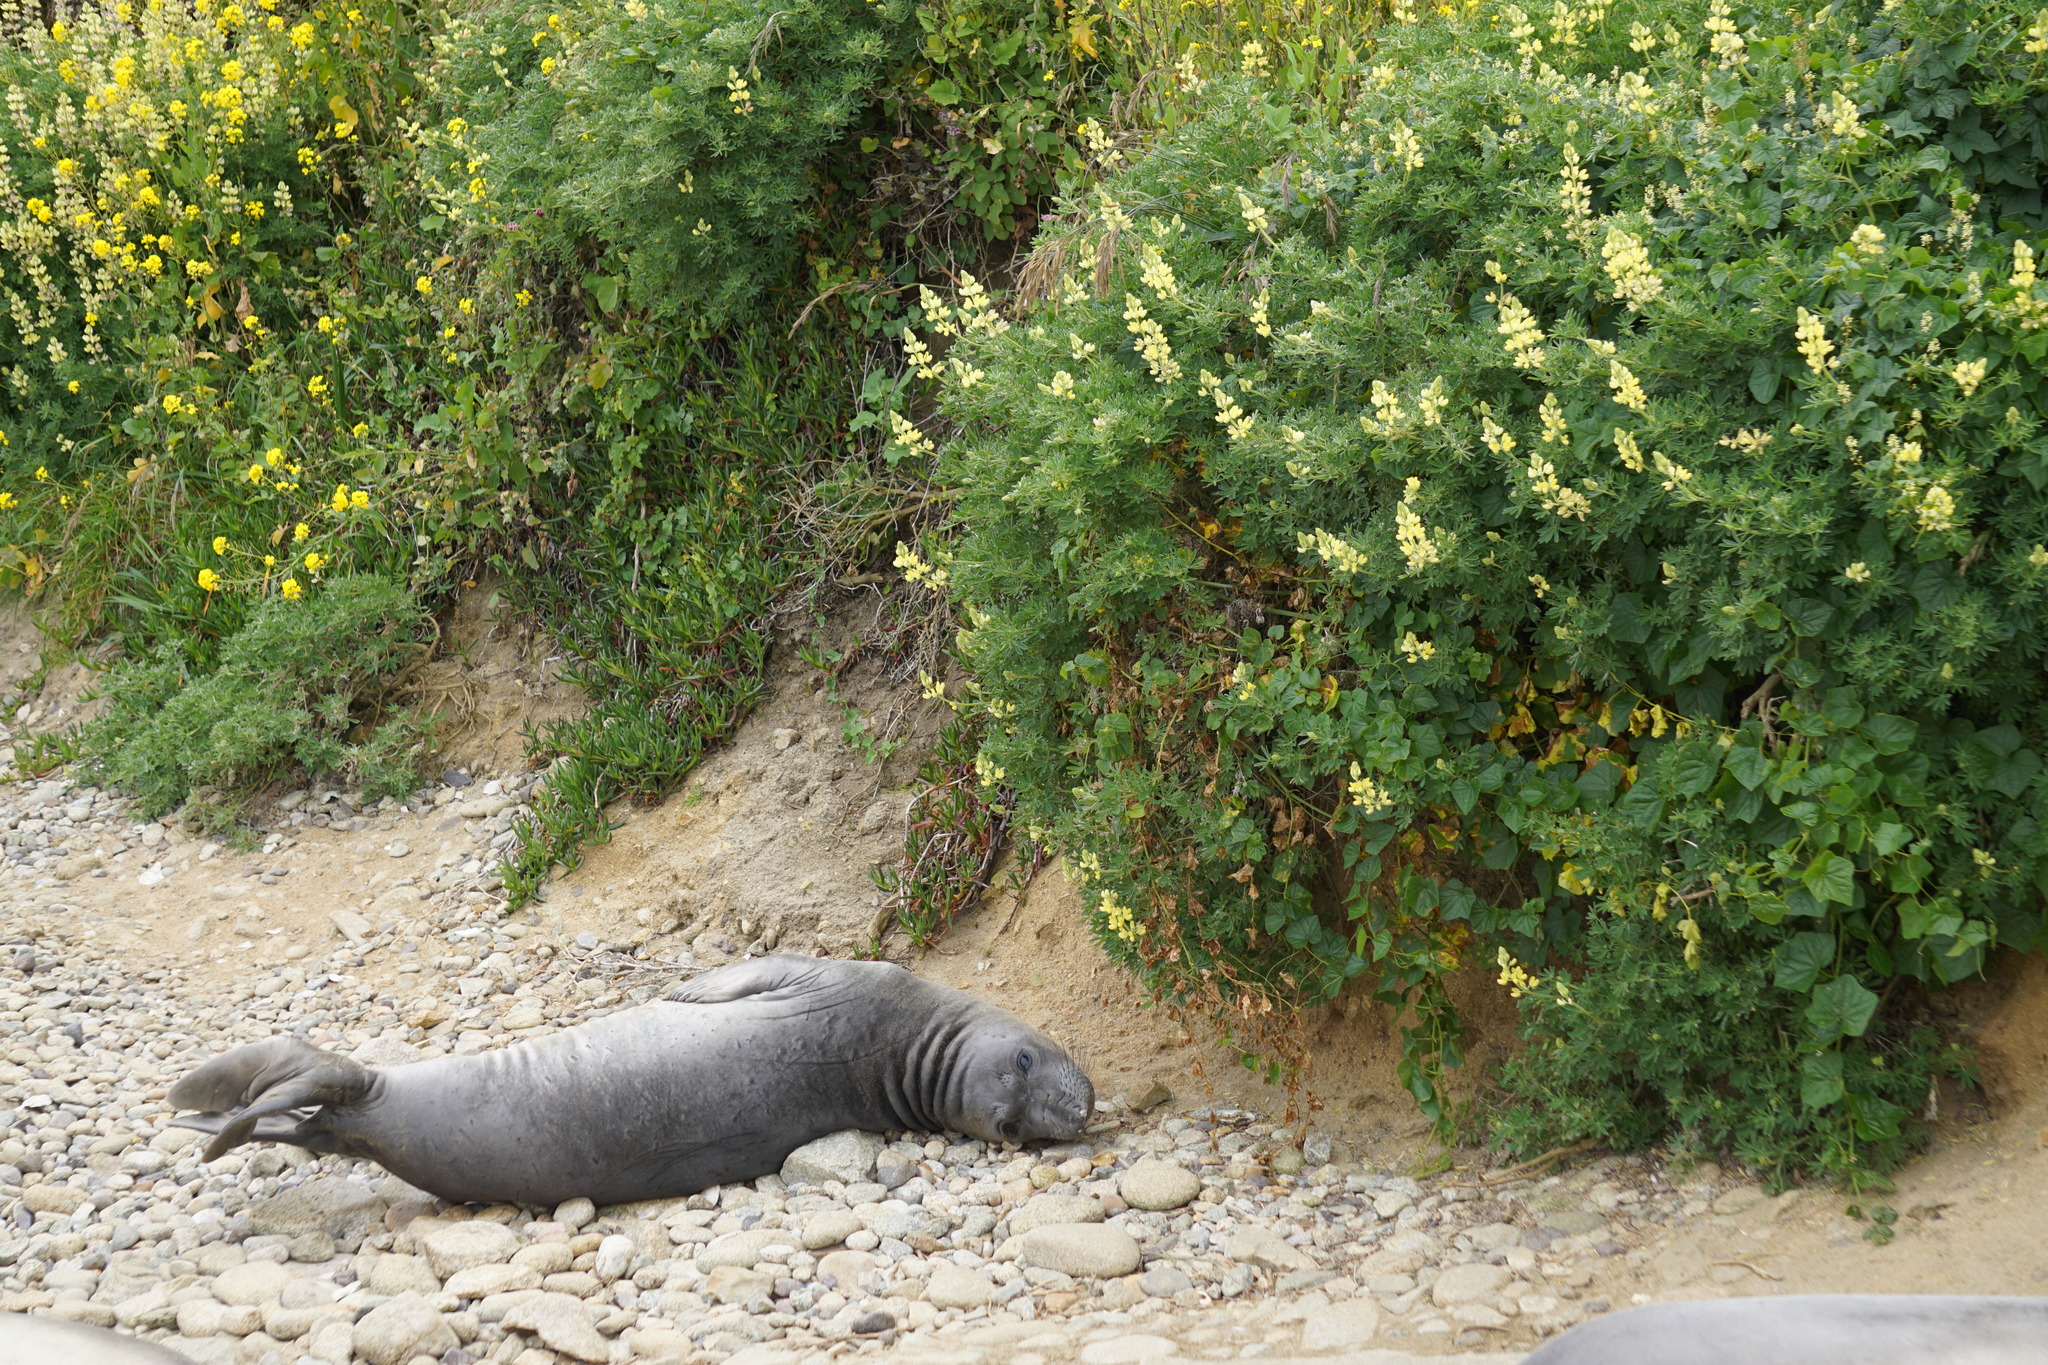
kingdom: Animalia
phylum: Chordata
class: Mammalia
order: Carnivora
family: Phocidae
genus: Mirounga
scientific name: Mirounga angustirostris
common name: Northern elephant seal
